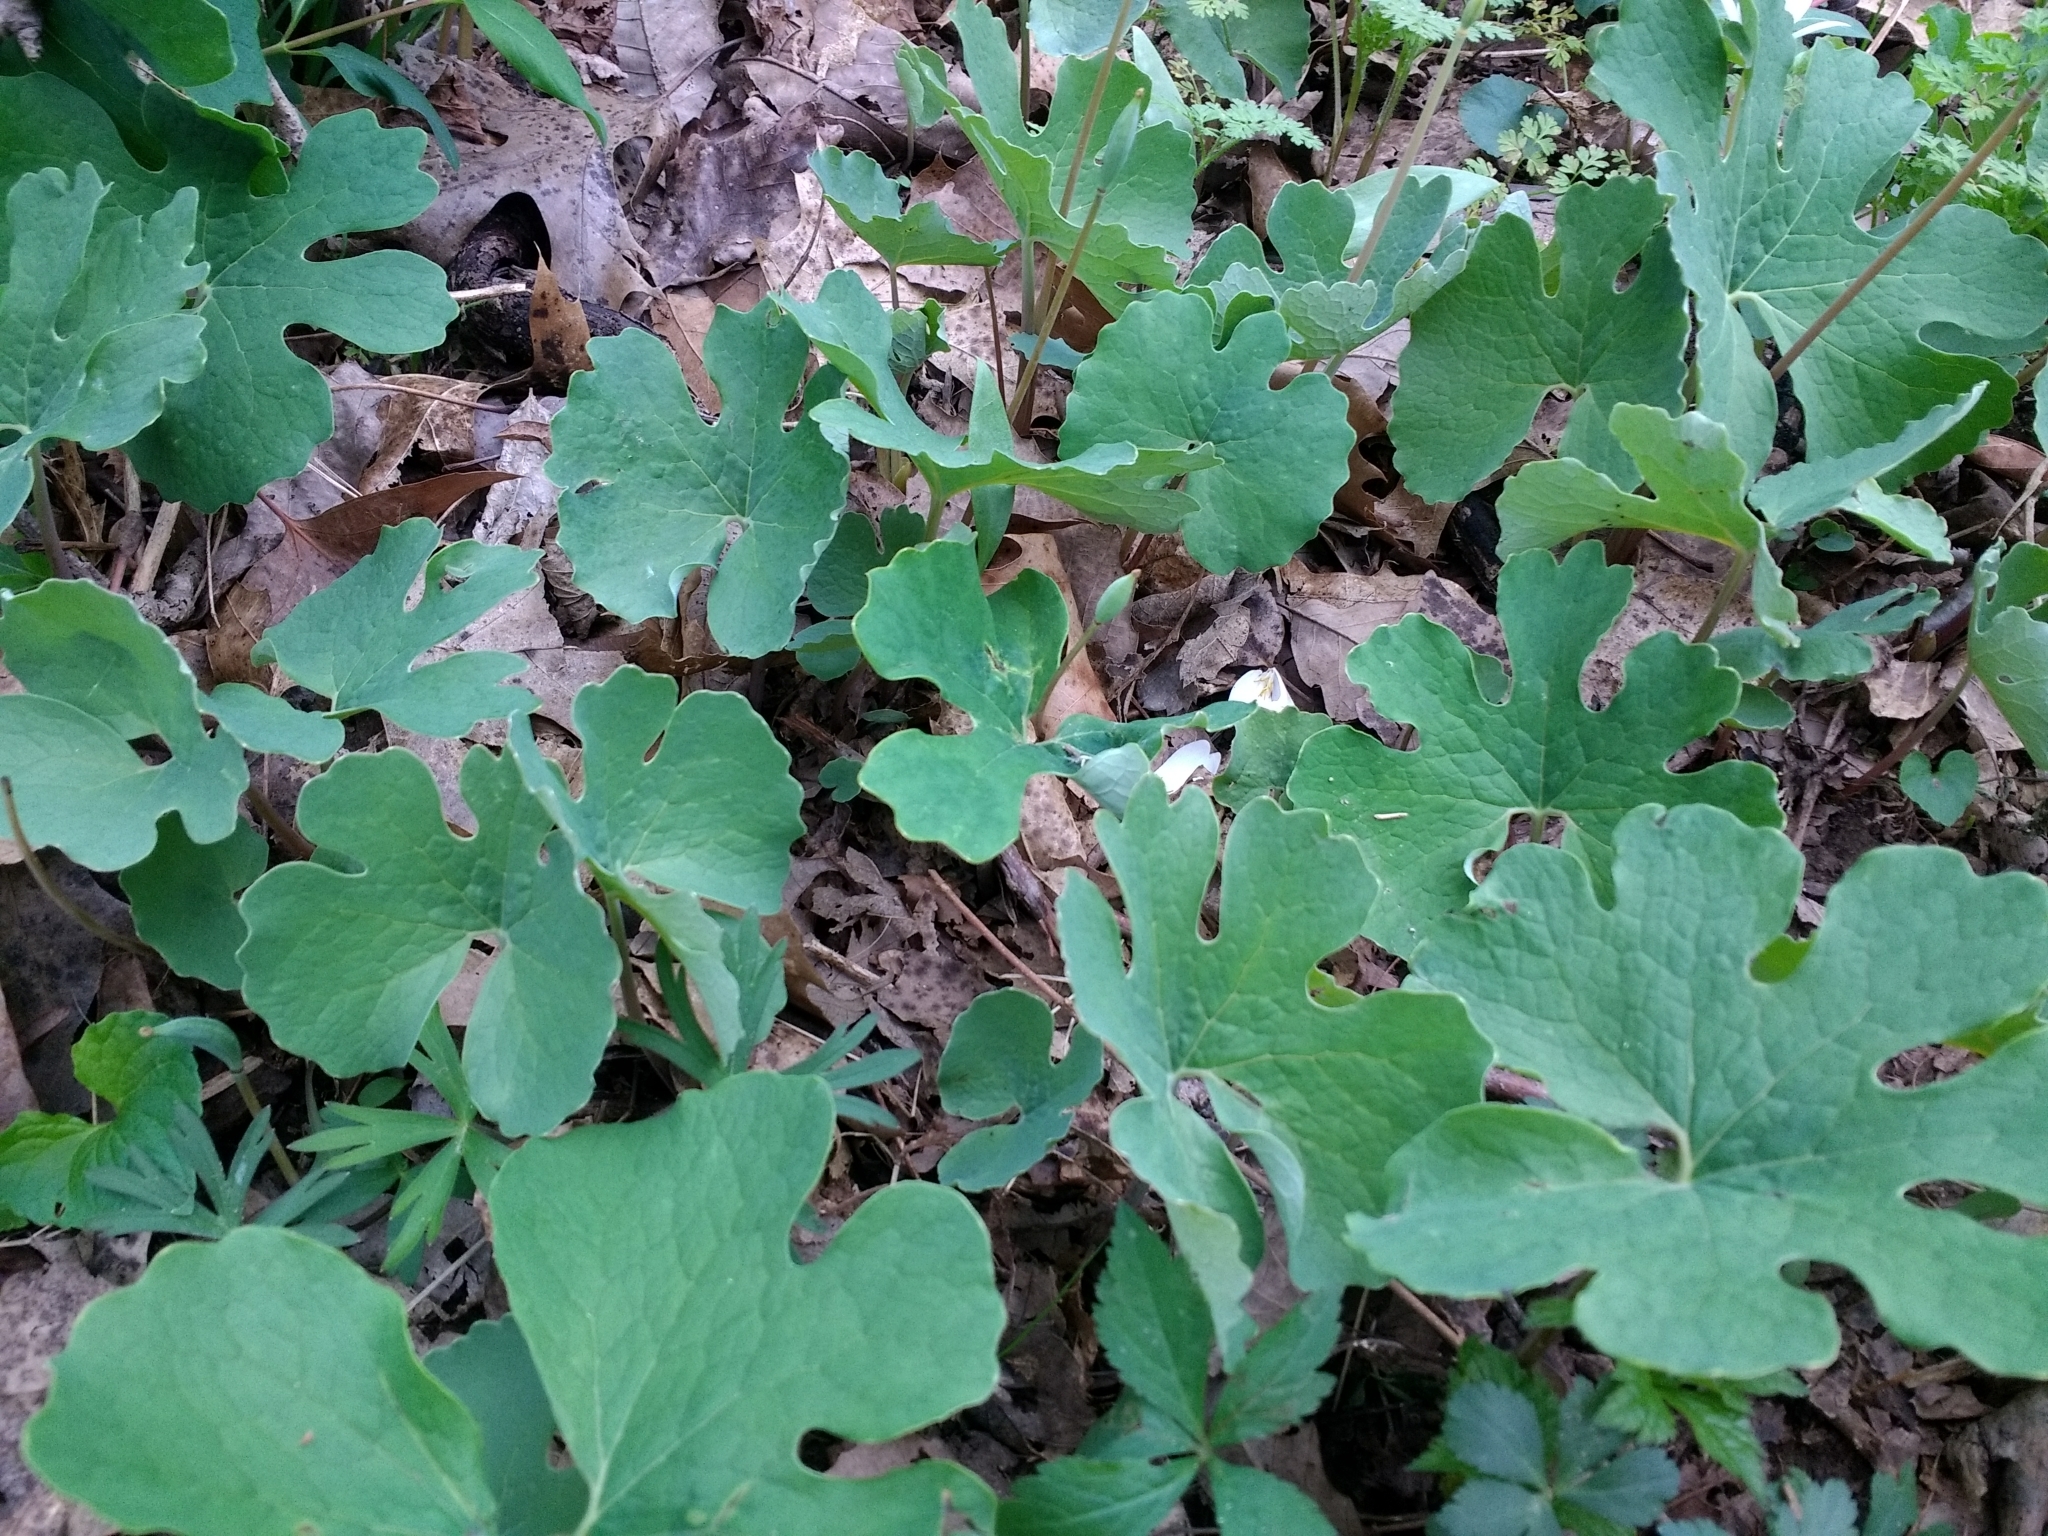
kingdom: Plantae
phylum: Tracheophyta
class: Magnoliopsida
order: Ranunculales
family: Papaveraceae
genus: Sanguinaria
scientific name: Sanguinaria canadensis
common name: Bloodroot
